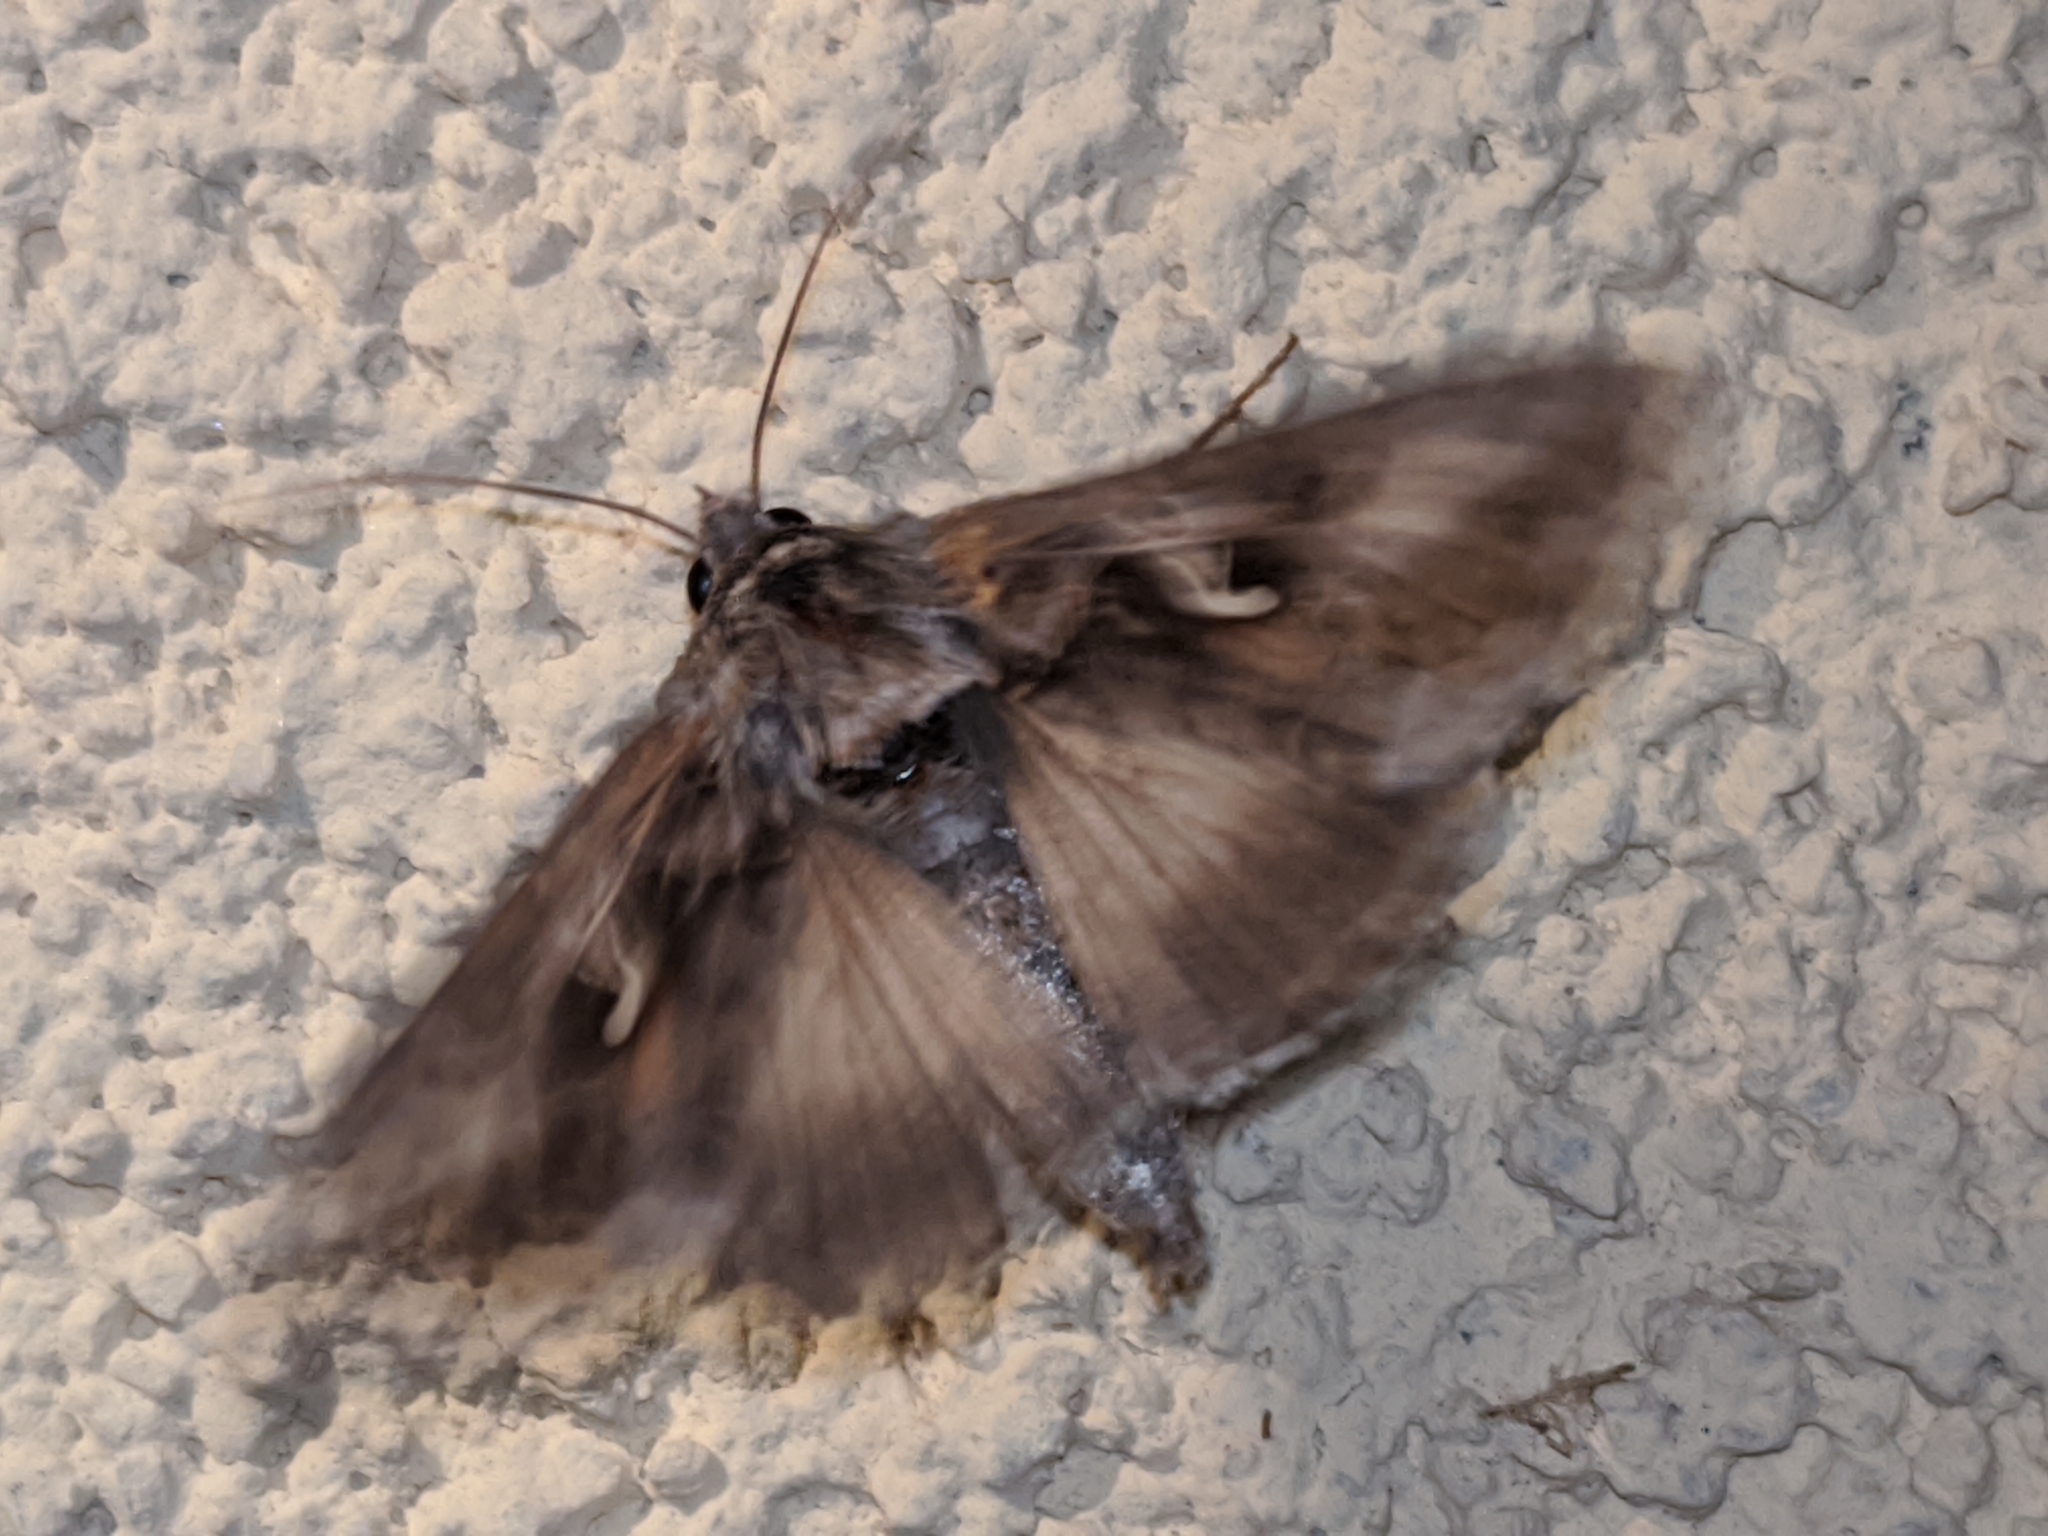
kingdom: Animalia
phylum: Arthropoda
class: Insecta
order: Lepidoptera
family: Noctuidae
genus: Autographa
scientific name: Autographa gamma
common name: Silver y
